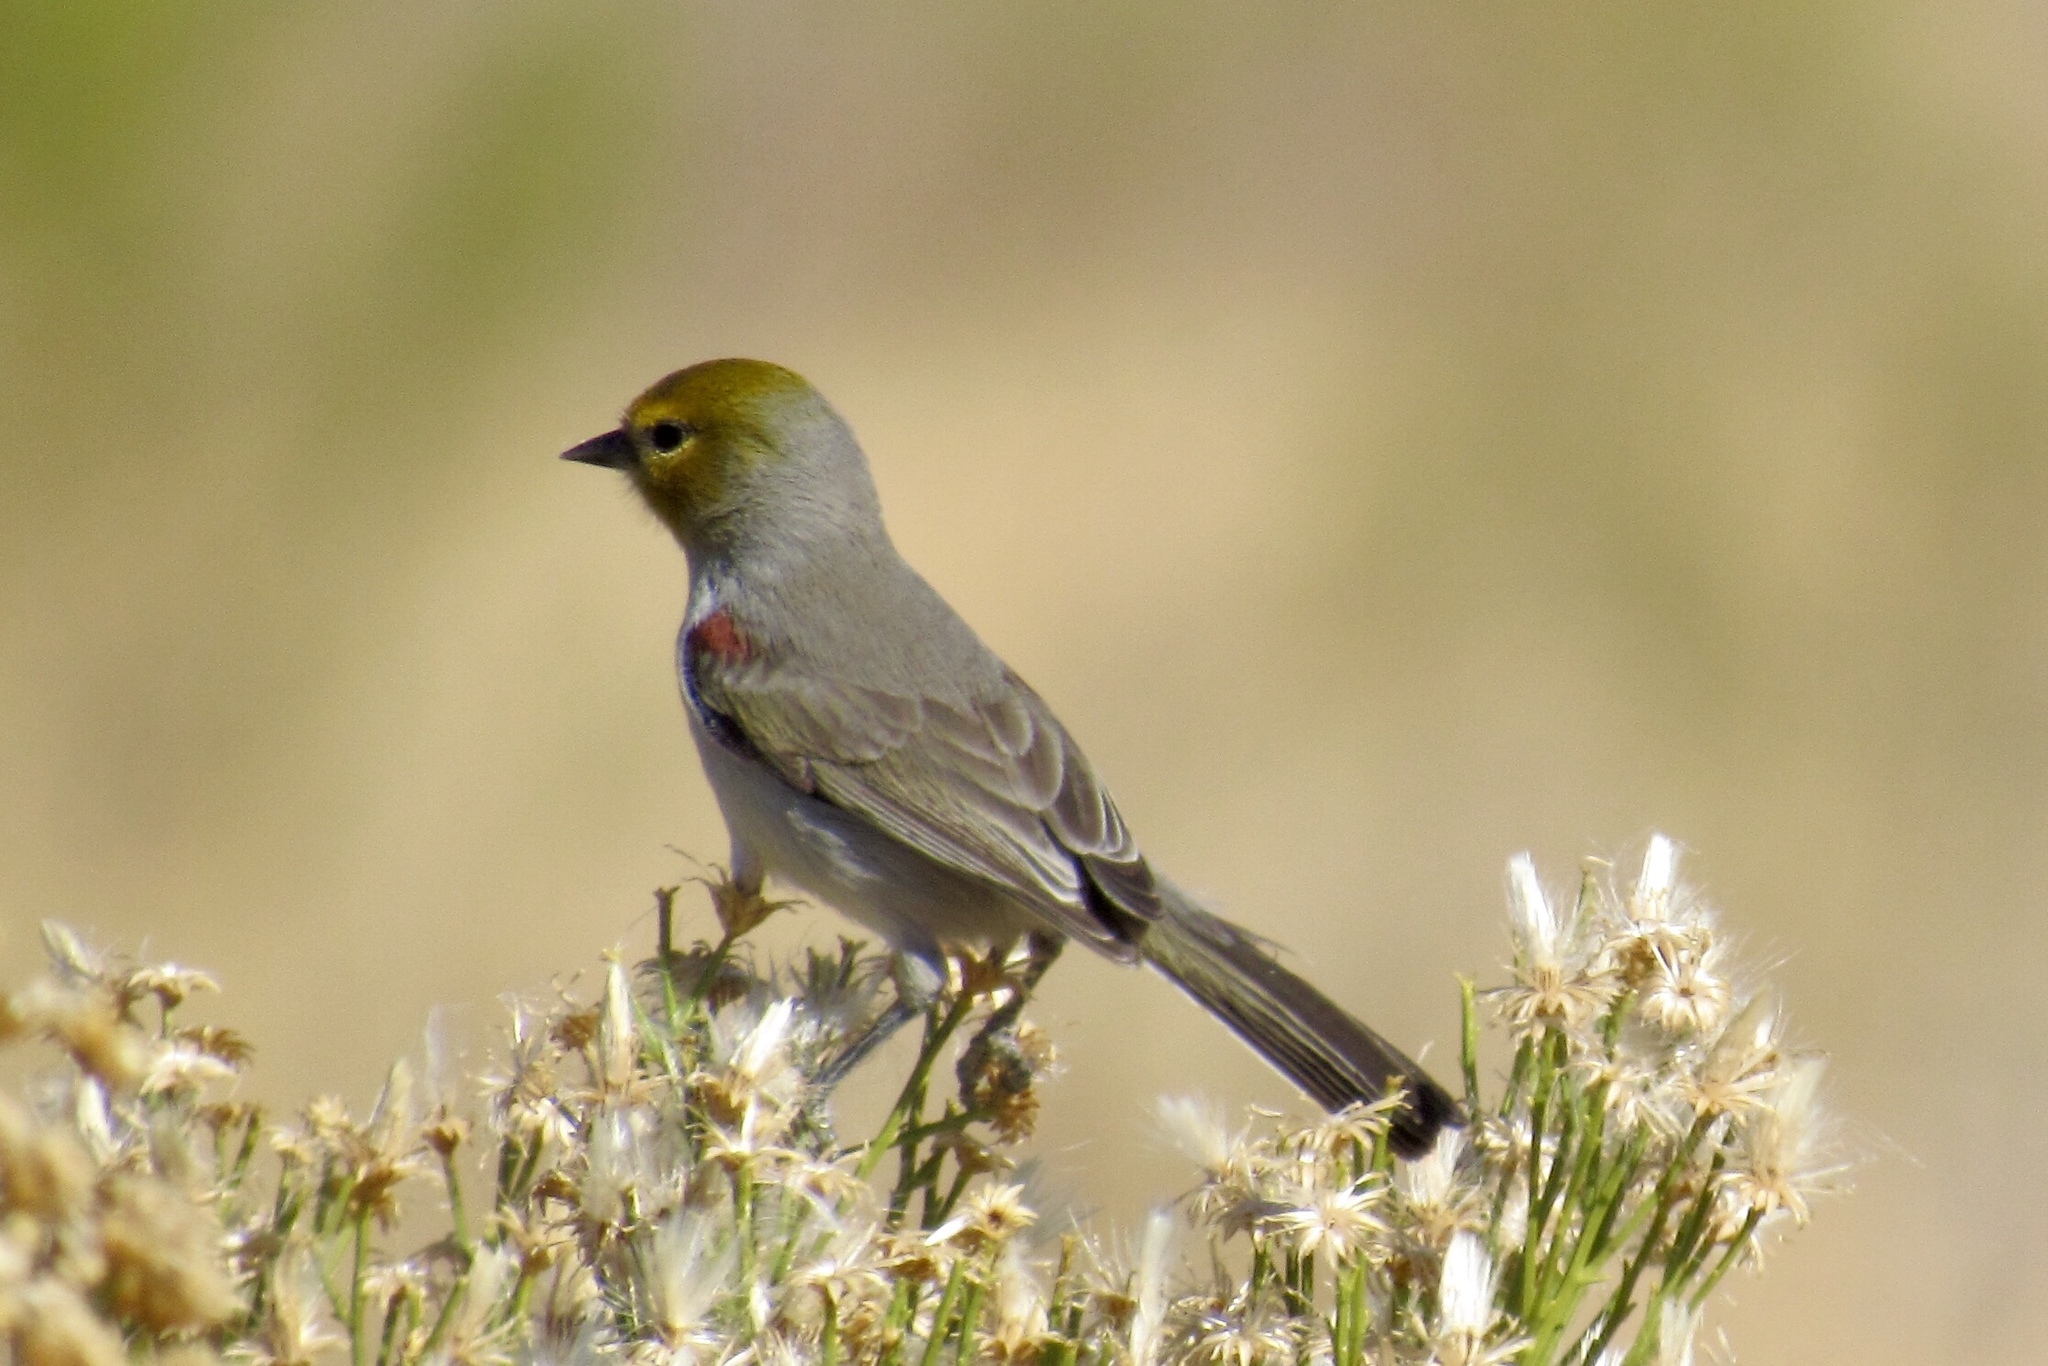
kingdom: Animalia
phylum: Chordata
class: Aves
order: Passeriformes
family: Remizidae
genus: Auriparus
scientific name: Auriparus flaviceps
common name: Verdin
